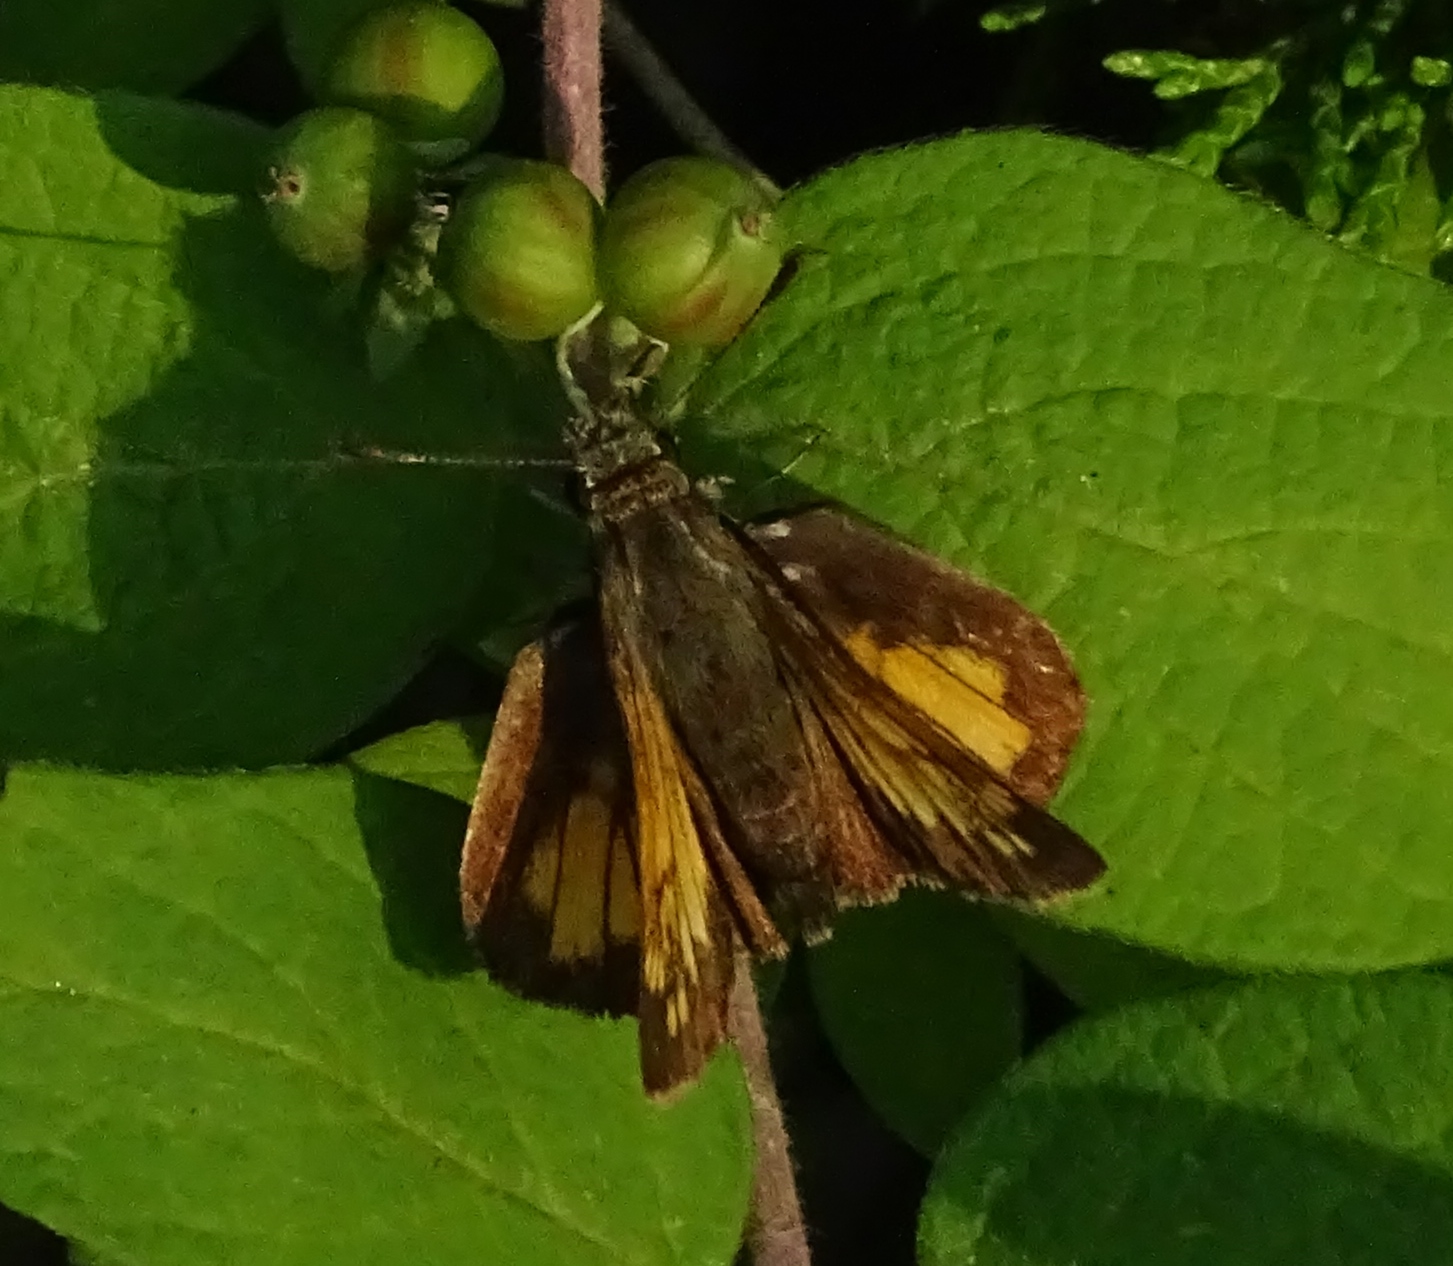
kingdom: Animalia
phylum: Arthropoda
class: Insecta
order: Lepidoptera
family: Hesperiidae
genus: Lon
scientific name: Lon hobomok
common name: Hobomok skipper
